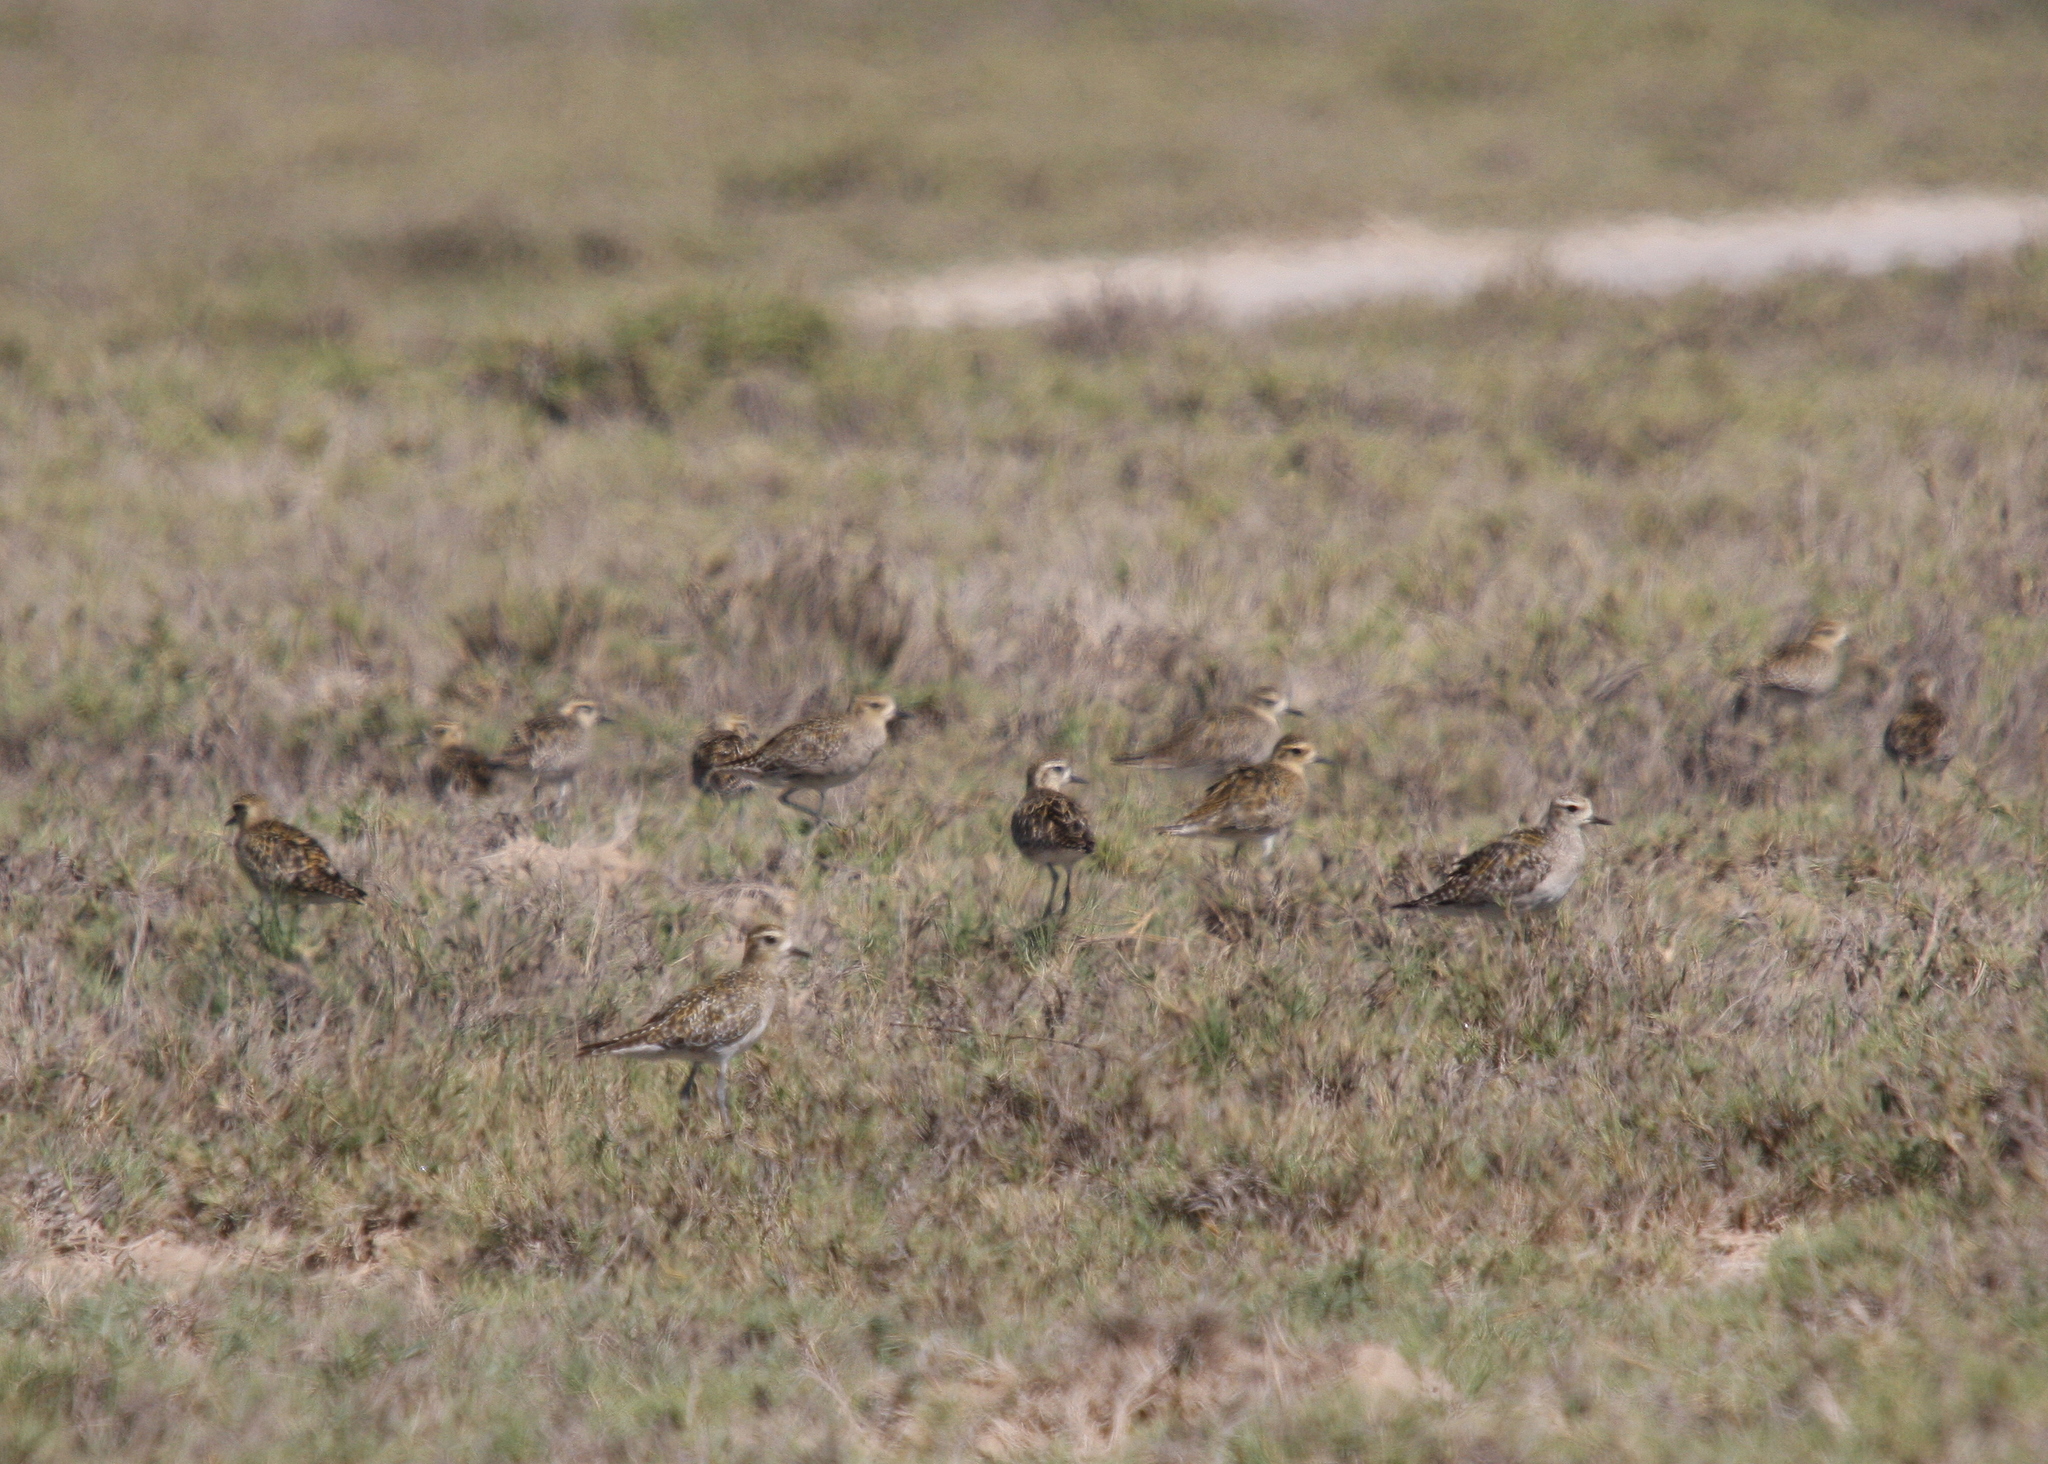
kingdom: Animalia
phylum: Chordata
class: Aves
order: Charadriiformes
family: Charadriidae
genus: Pluvialis
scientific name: Pluvialis fulva
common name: Pacific golden plover
